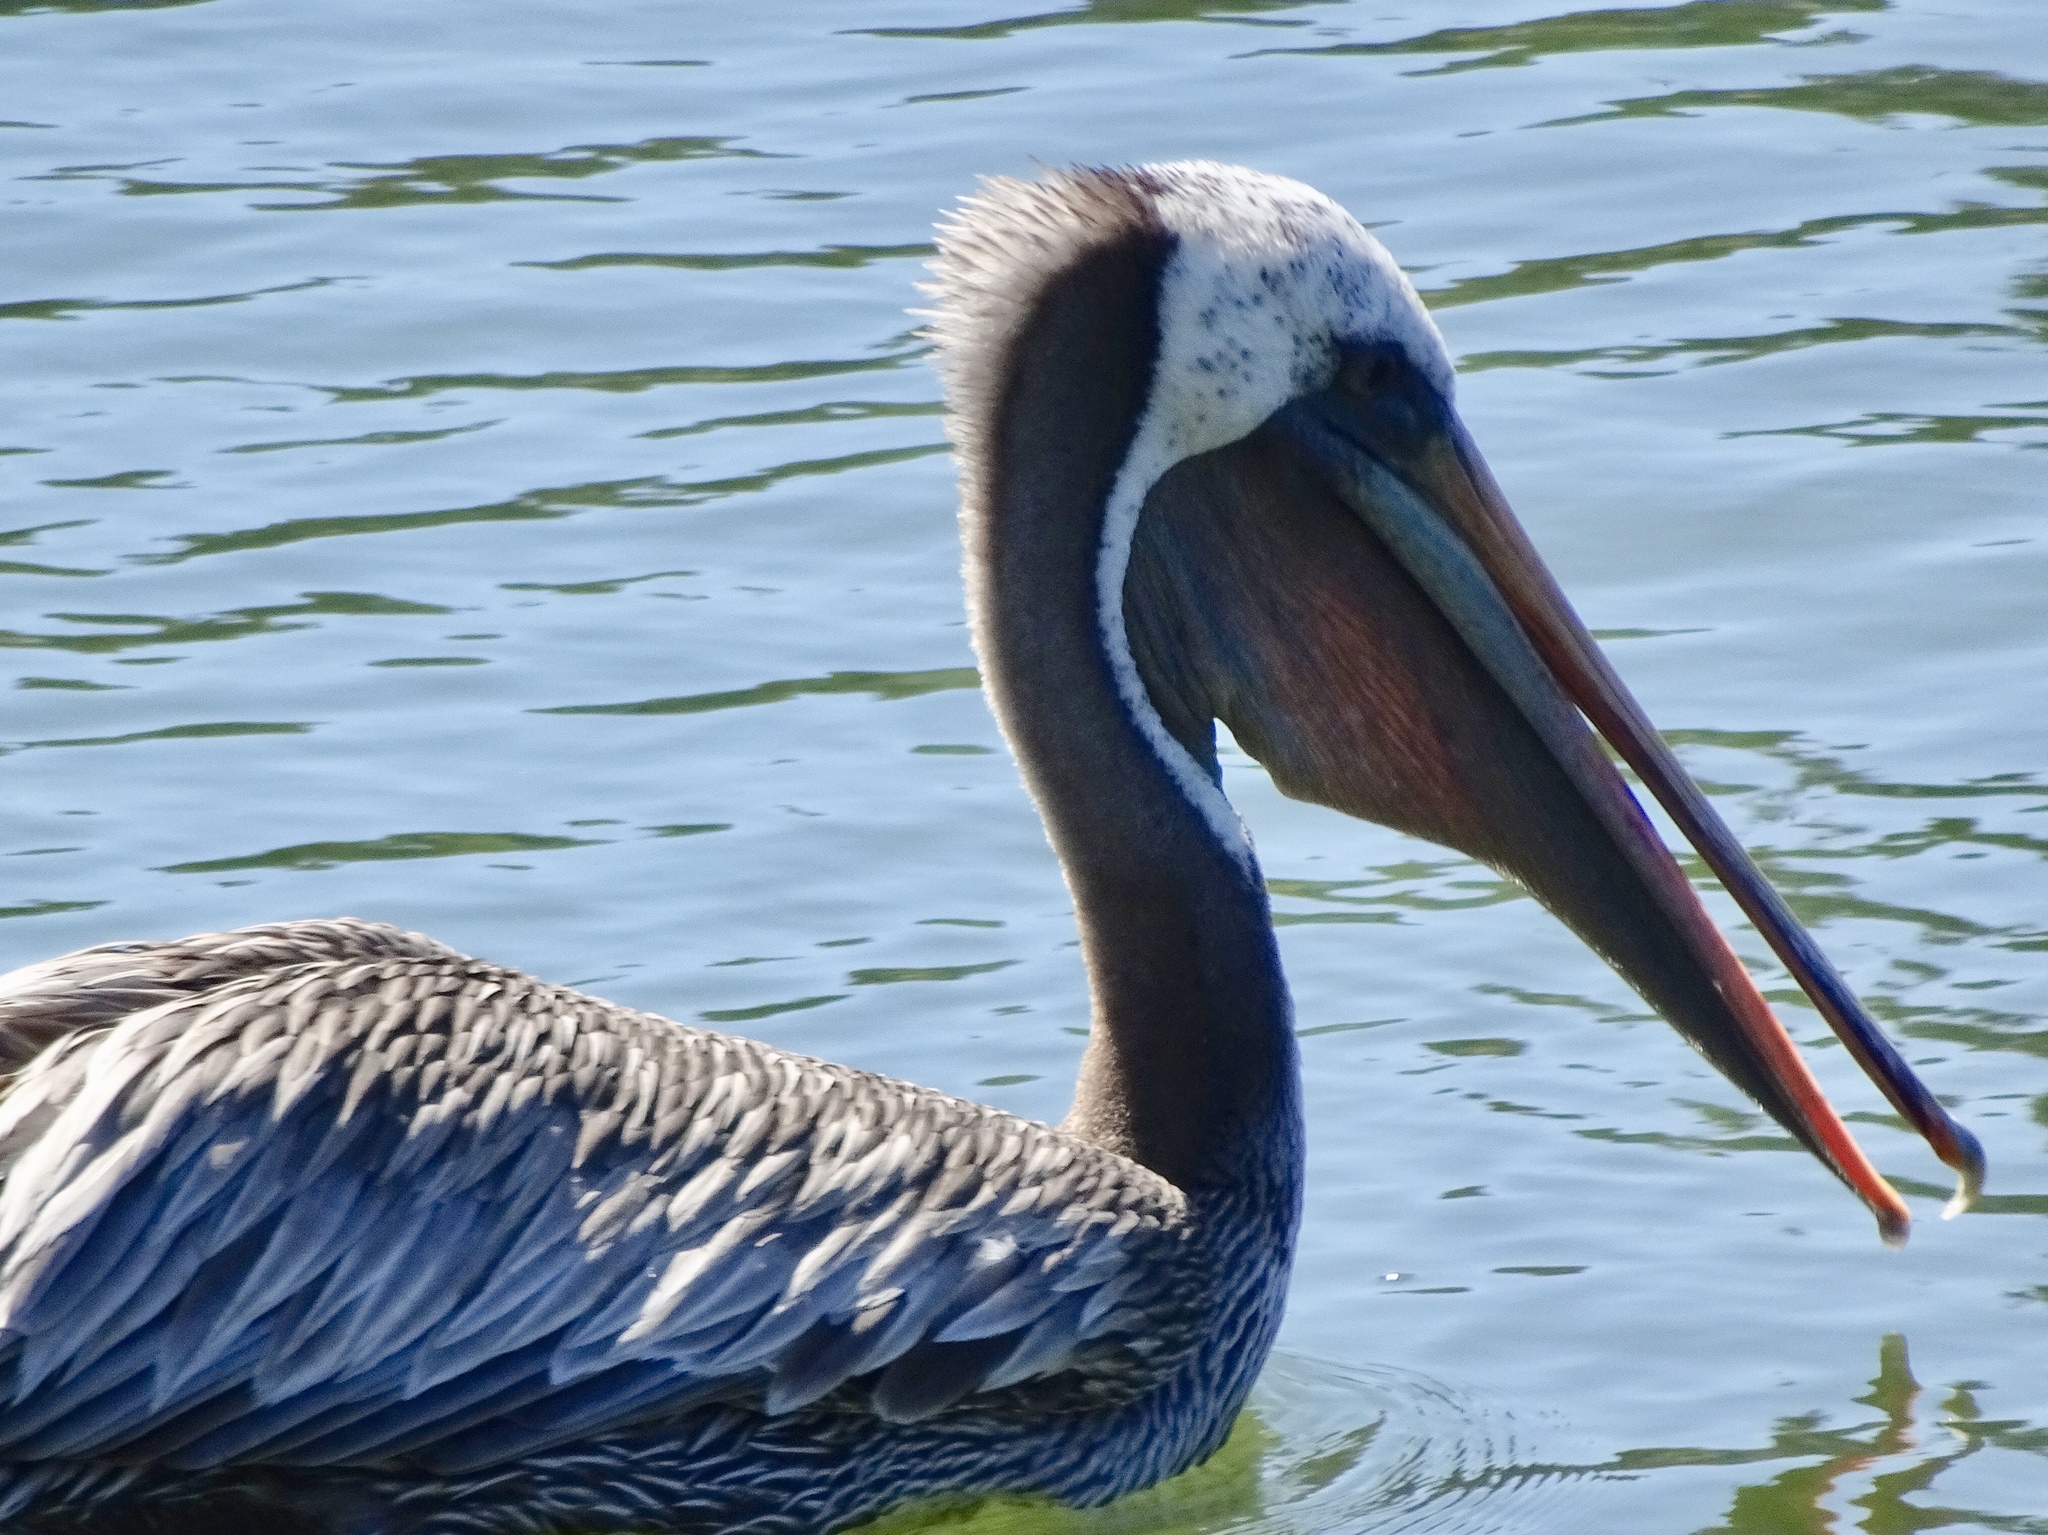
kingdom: Animalia
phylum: Chordata
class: Aves
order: Pelecaniformes
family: Pelecanidae
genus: Pelecanus
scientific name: Pelecanus occidentalis
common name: Brown pelican
